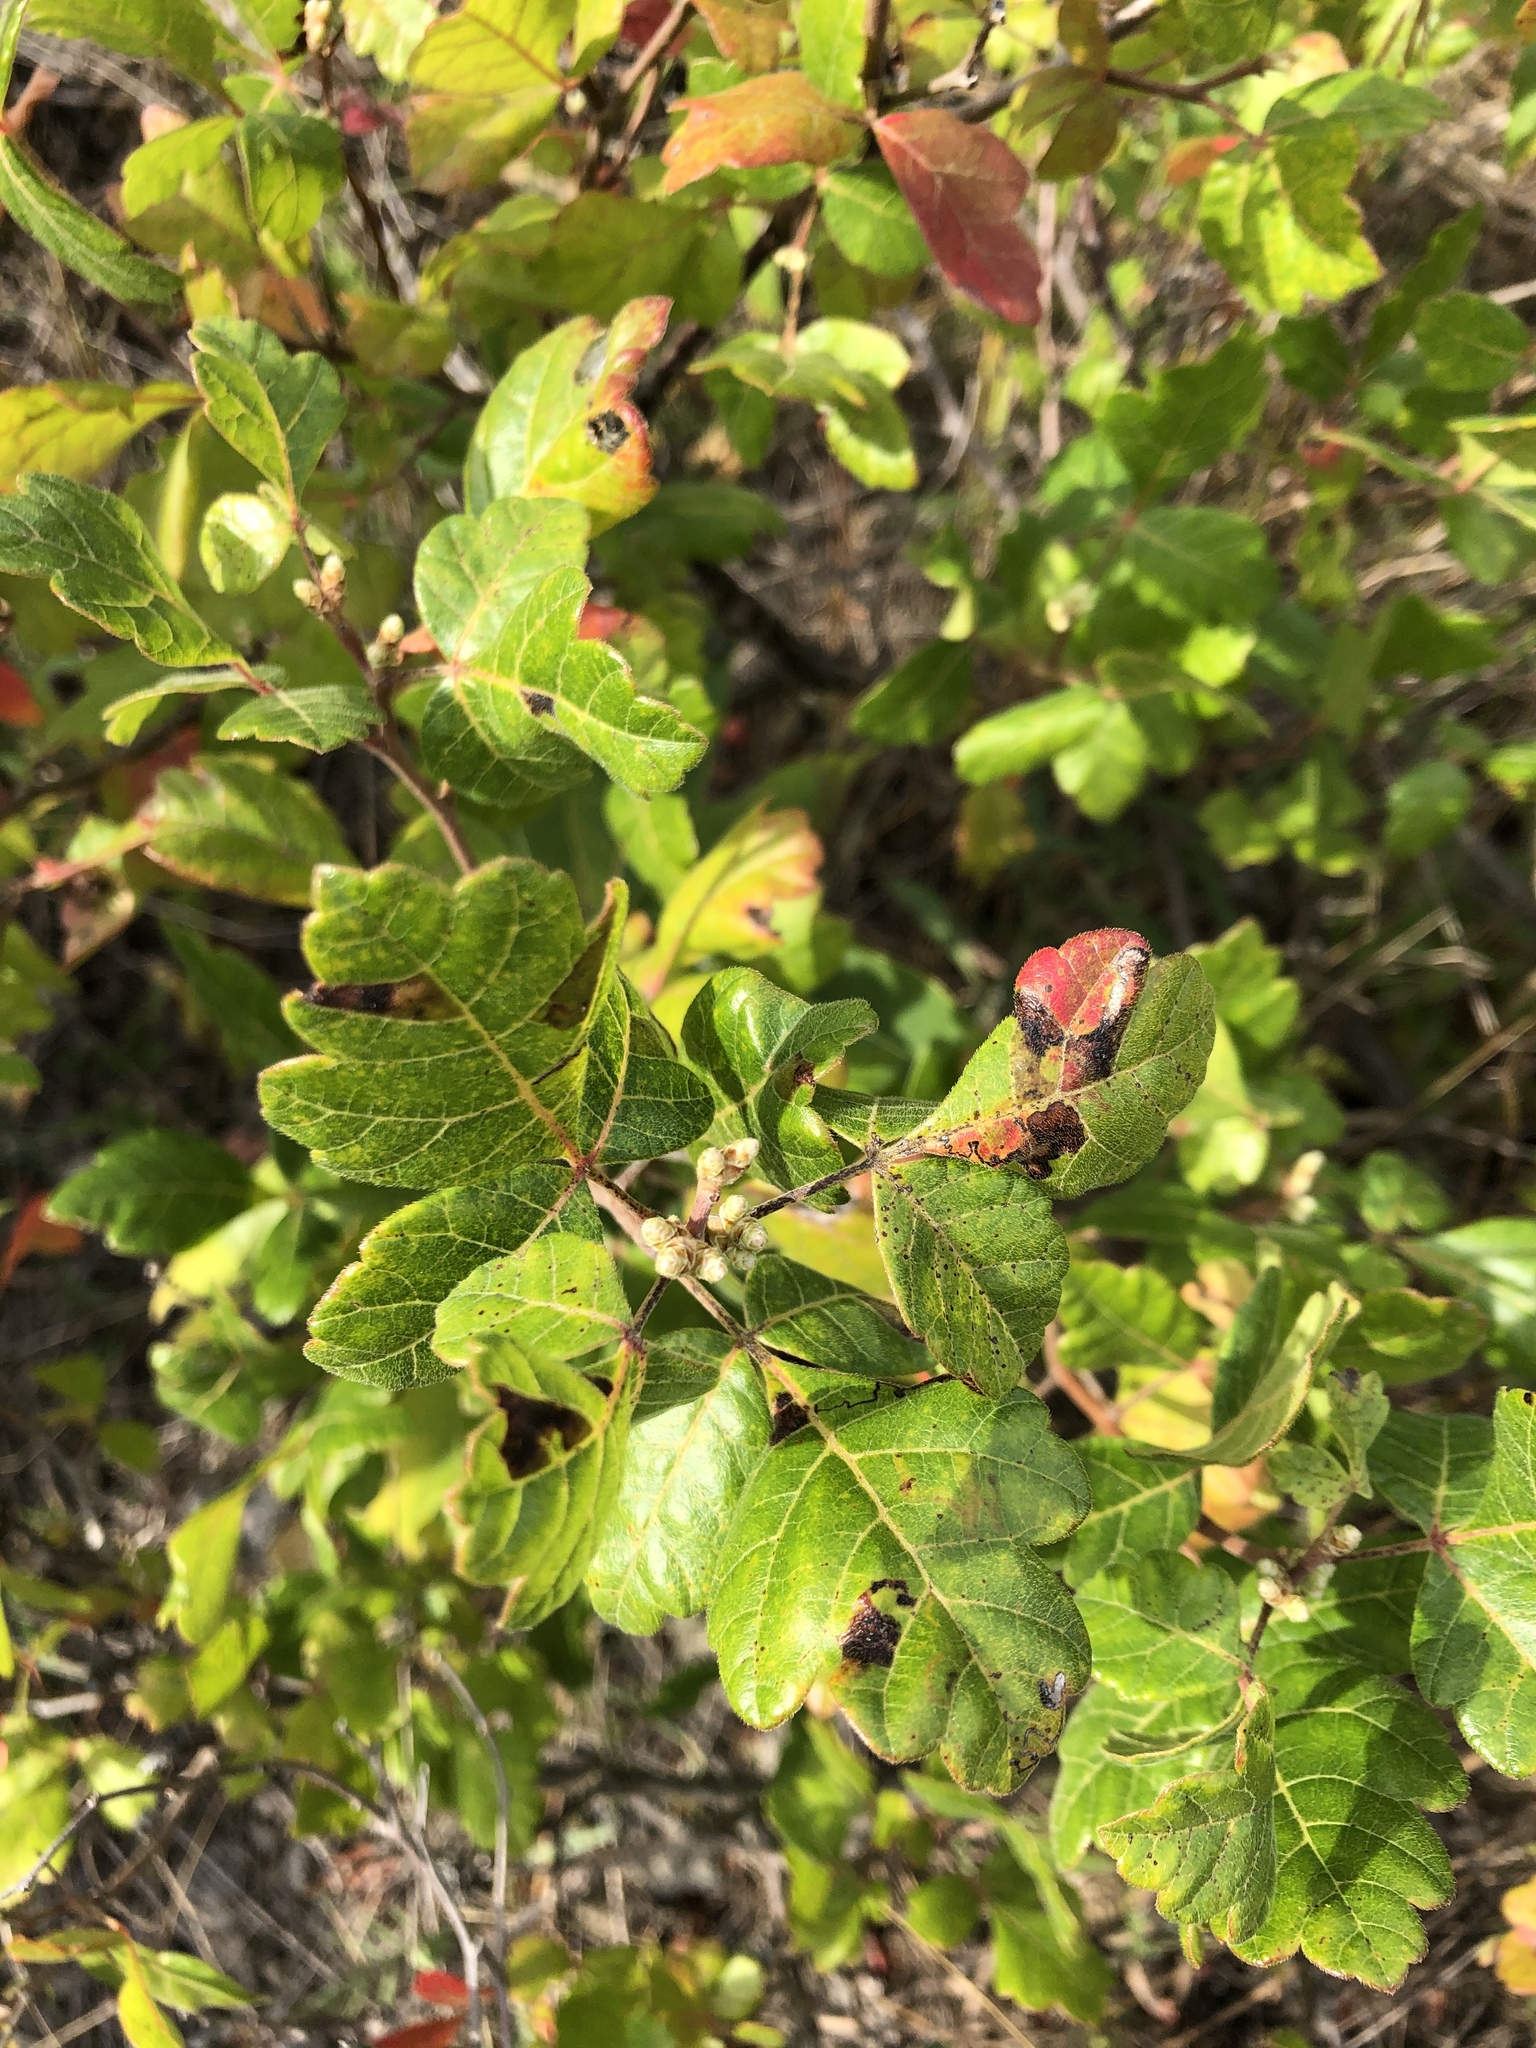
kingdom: Plantae
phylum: Tracheophyta
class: Magnoliopsida
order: Sapindales
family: Anacardiaceae
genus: Rhus
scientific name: Rhus aromatica
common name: Aromatic sumac
